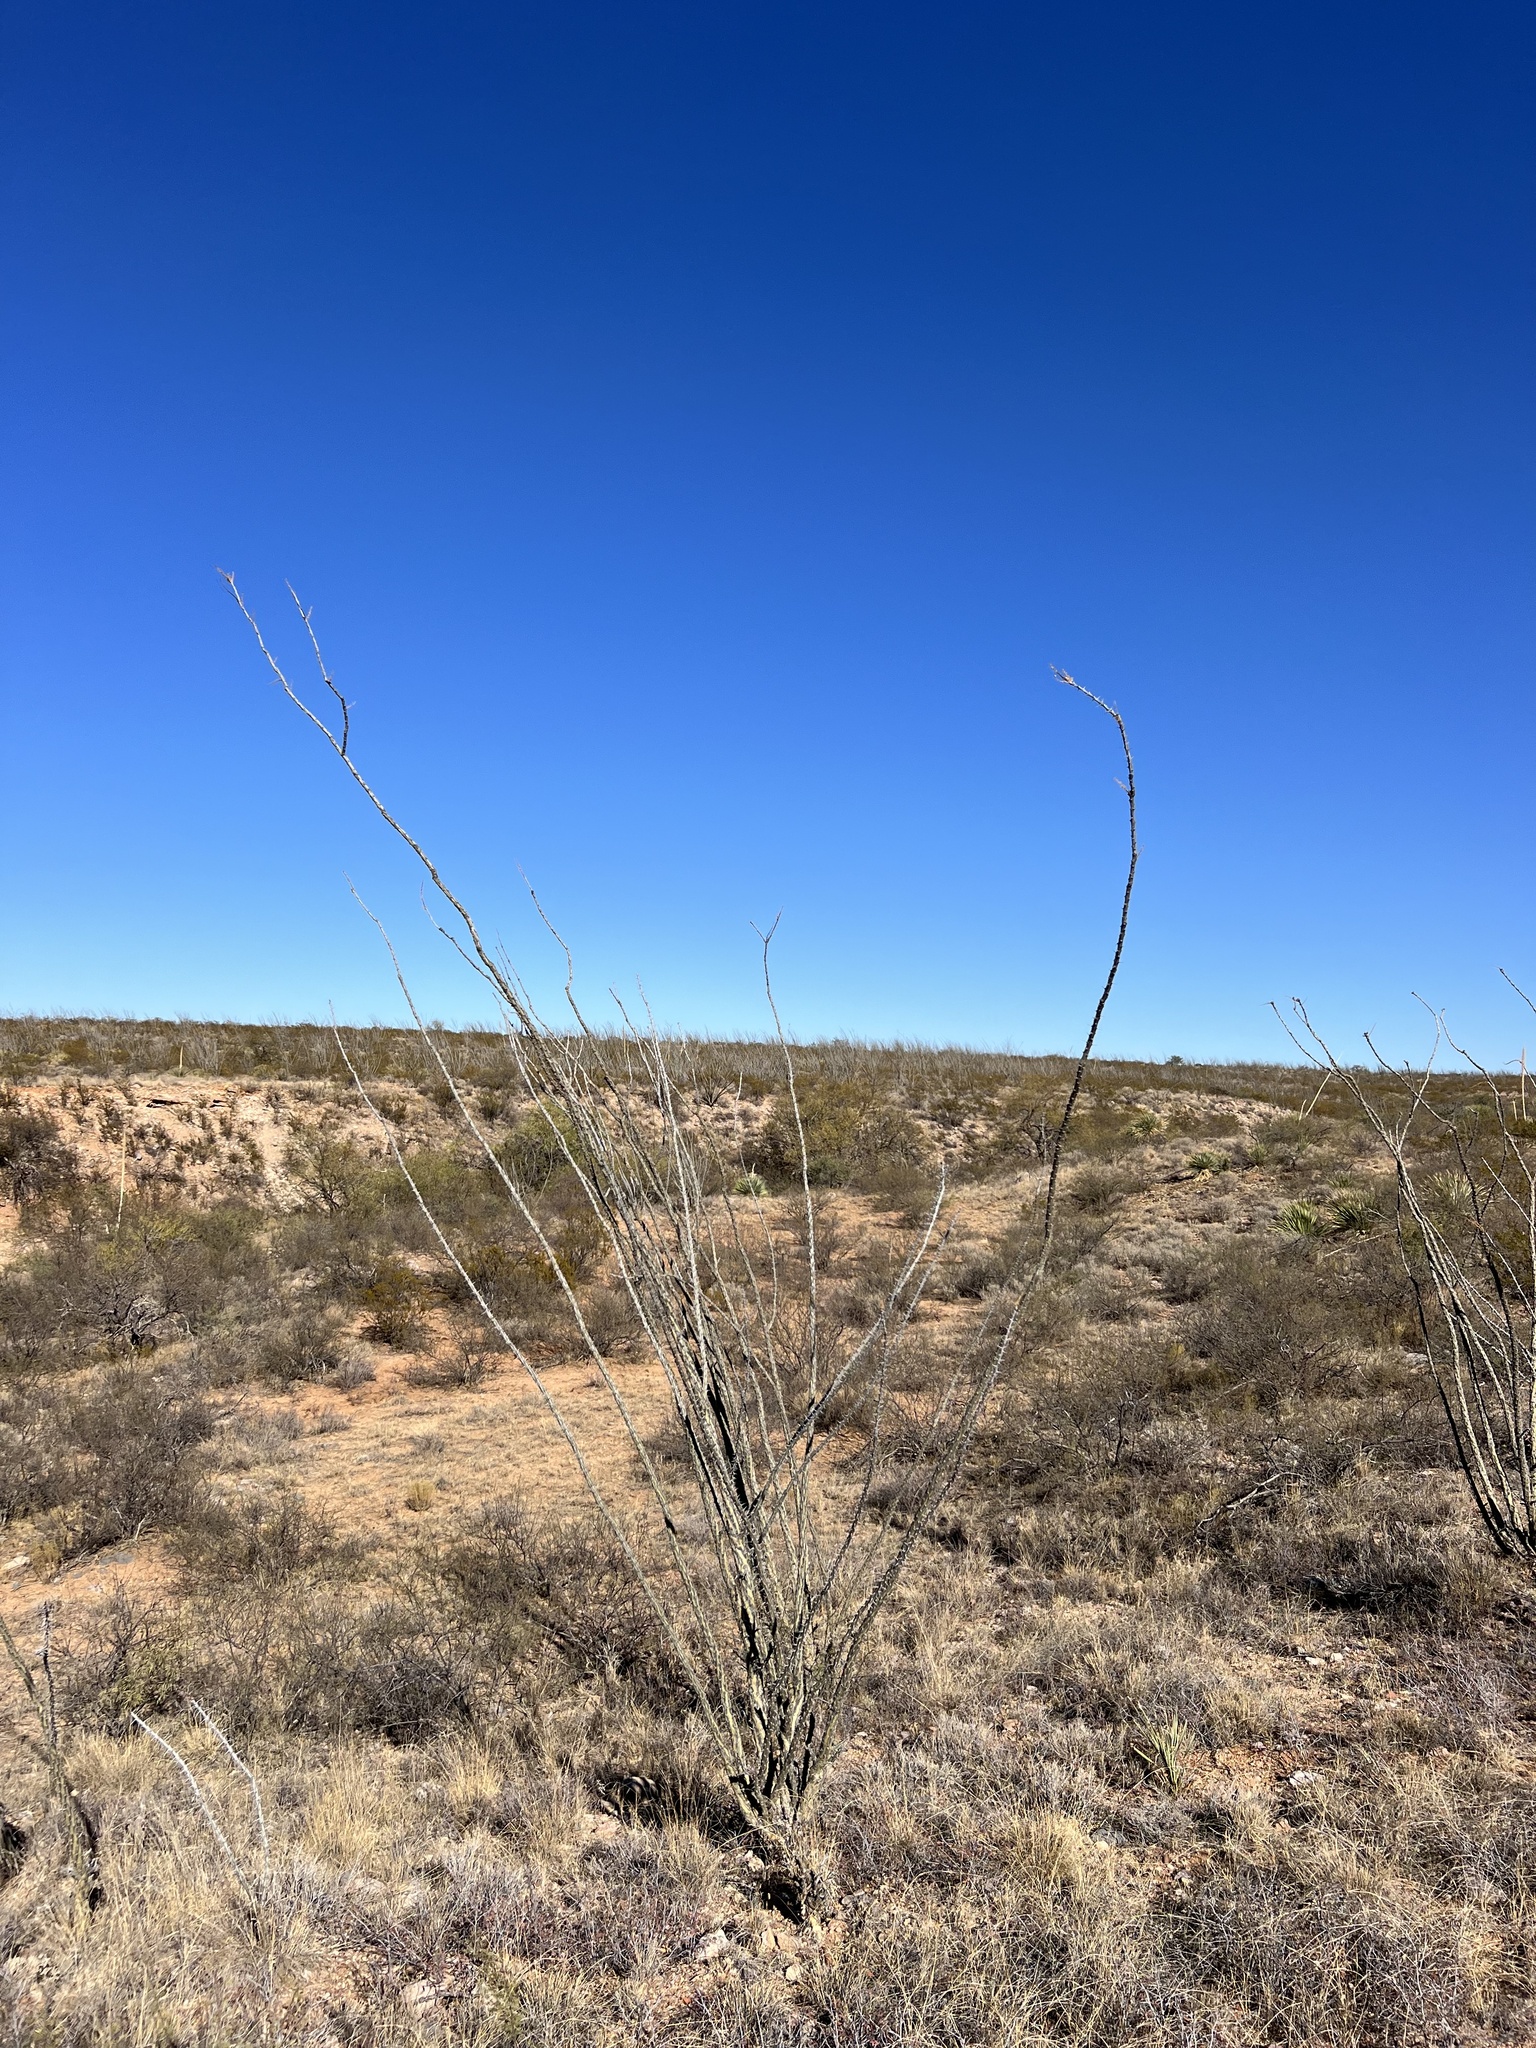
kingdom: Plantae
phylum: Tracheophyta
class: Magnoliopsida
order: Ericales
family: Fouquieriaceae
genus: Fouquieria
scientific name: Fouquieria splendens
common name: Vine-cactus
